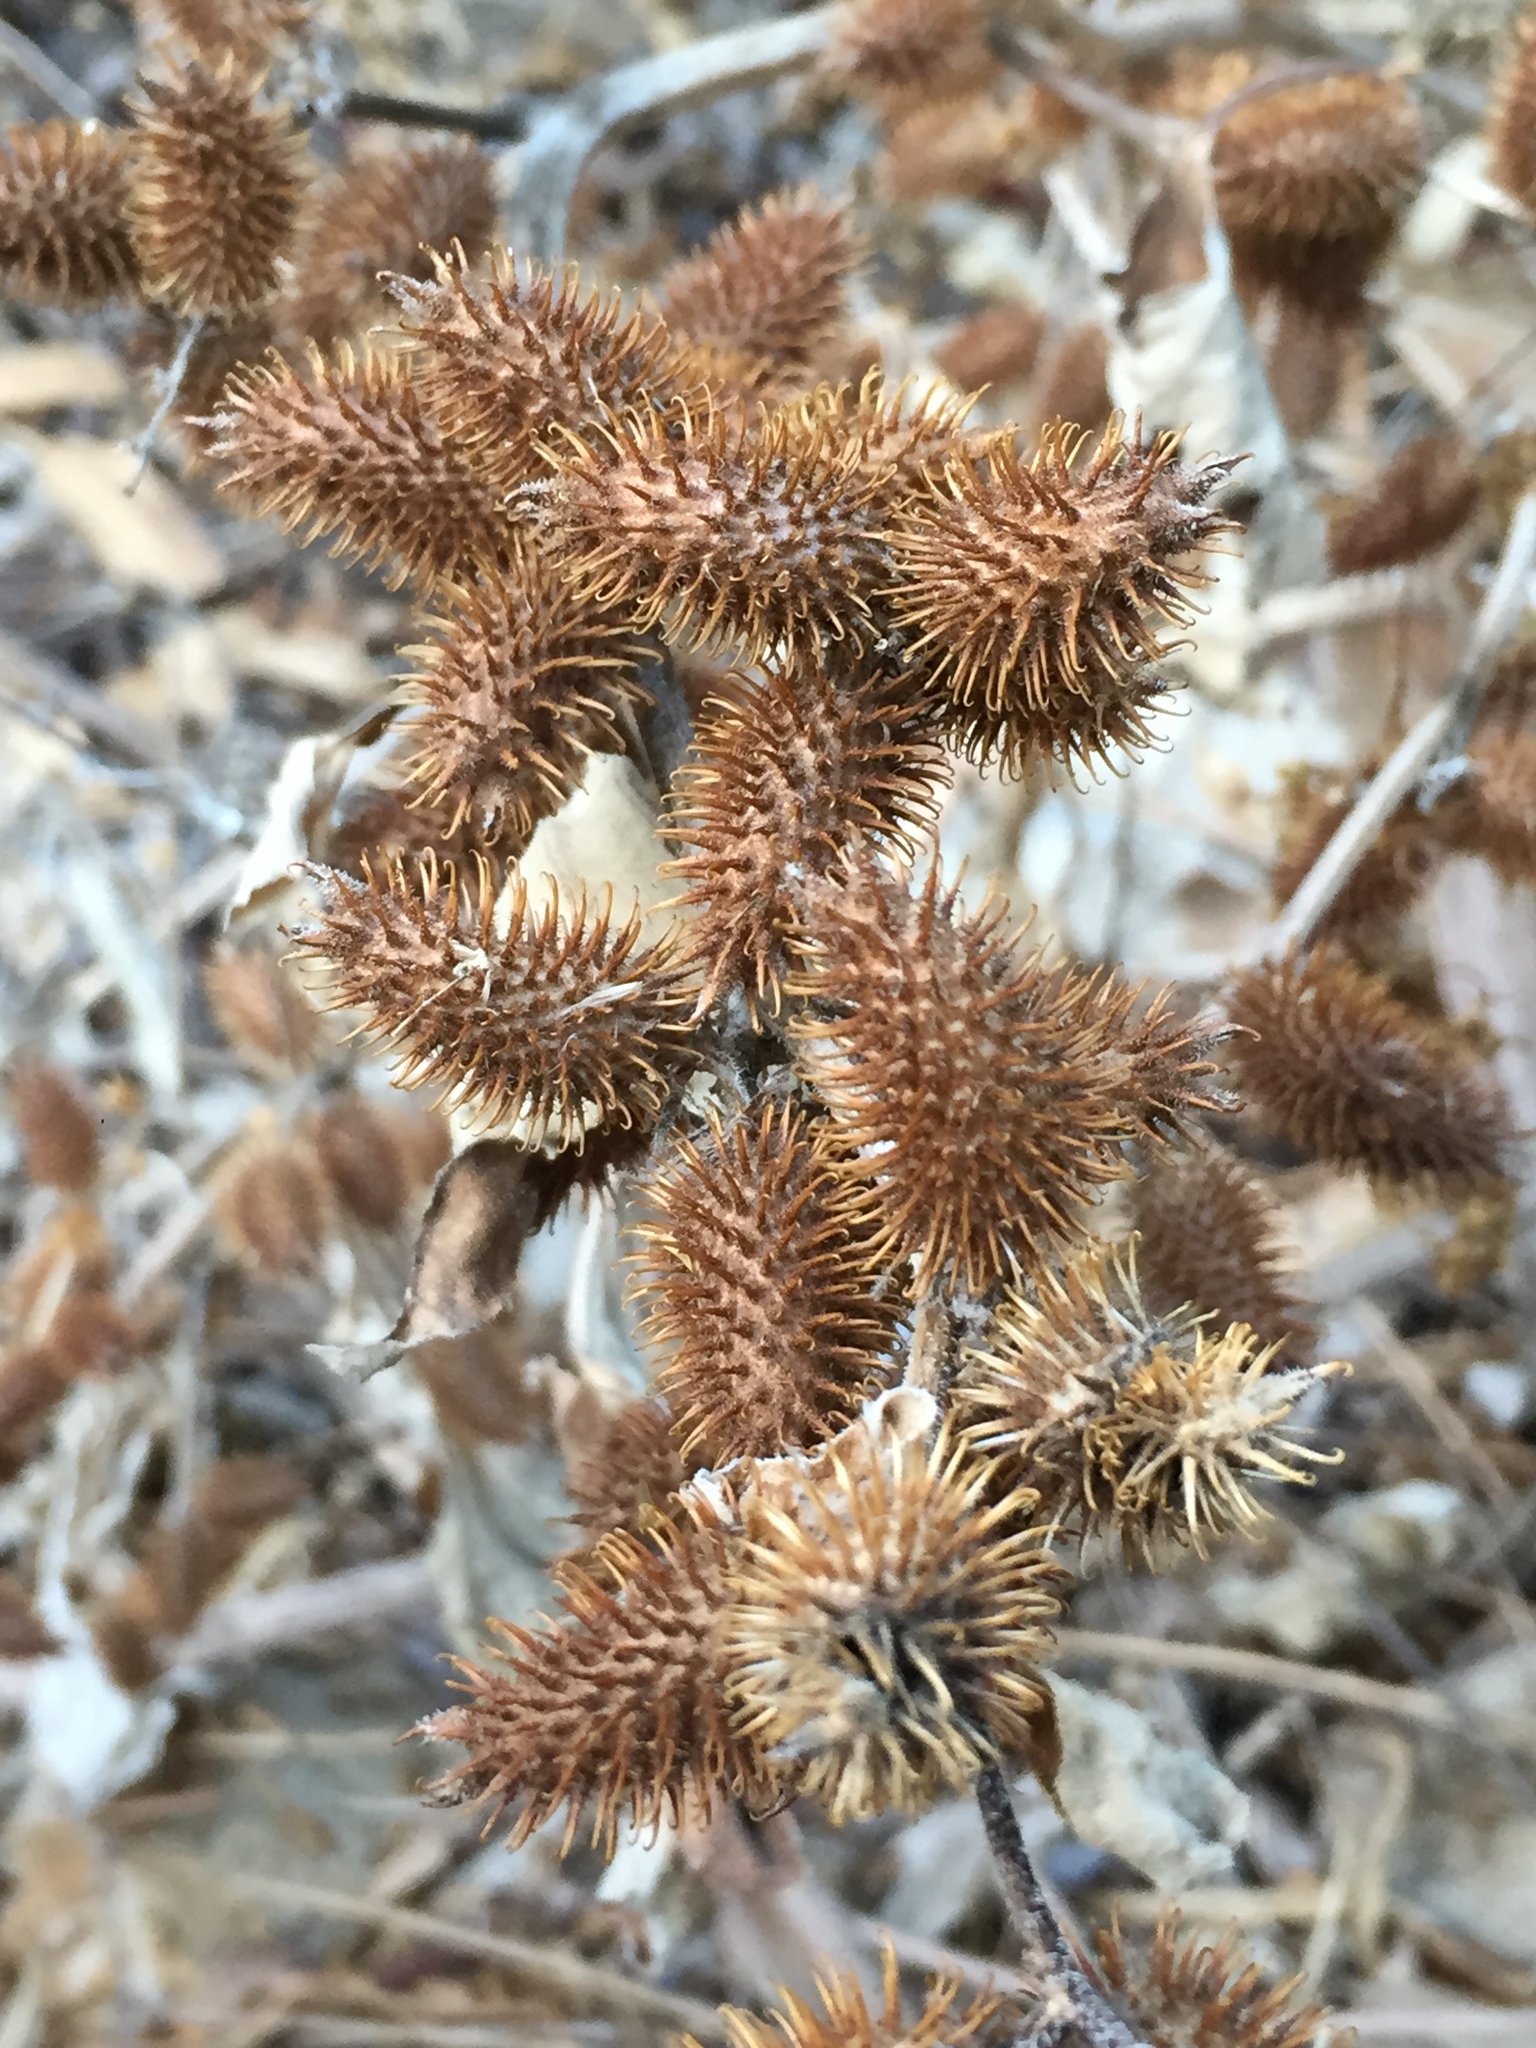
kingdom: Plantae
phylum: Tracheophyta
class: Magnoliopsida
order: Asterales
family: Asteraceae
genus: Xanthium
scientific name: Xanthium strumarium
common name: Rough cocklebur
